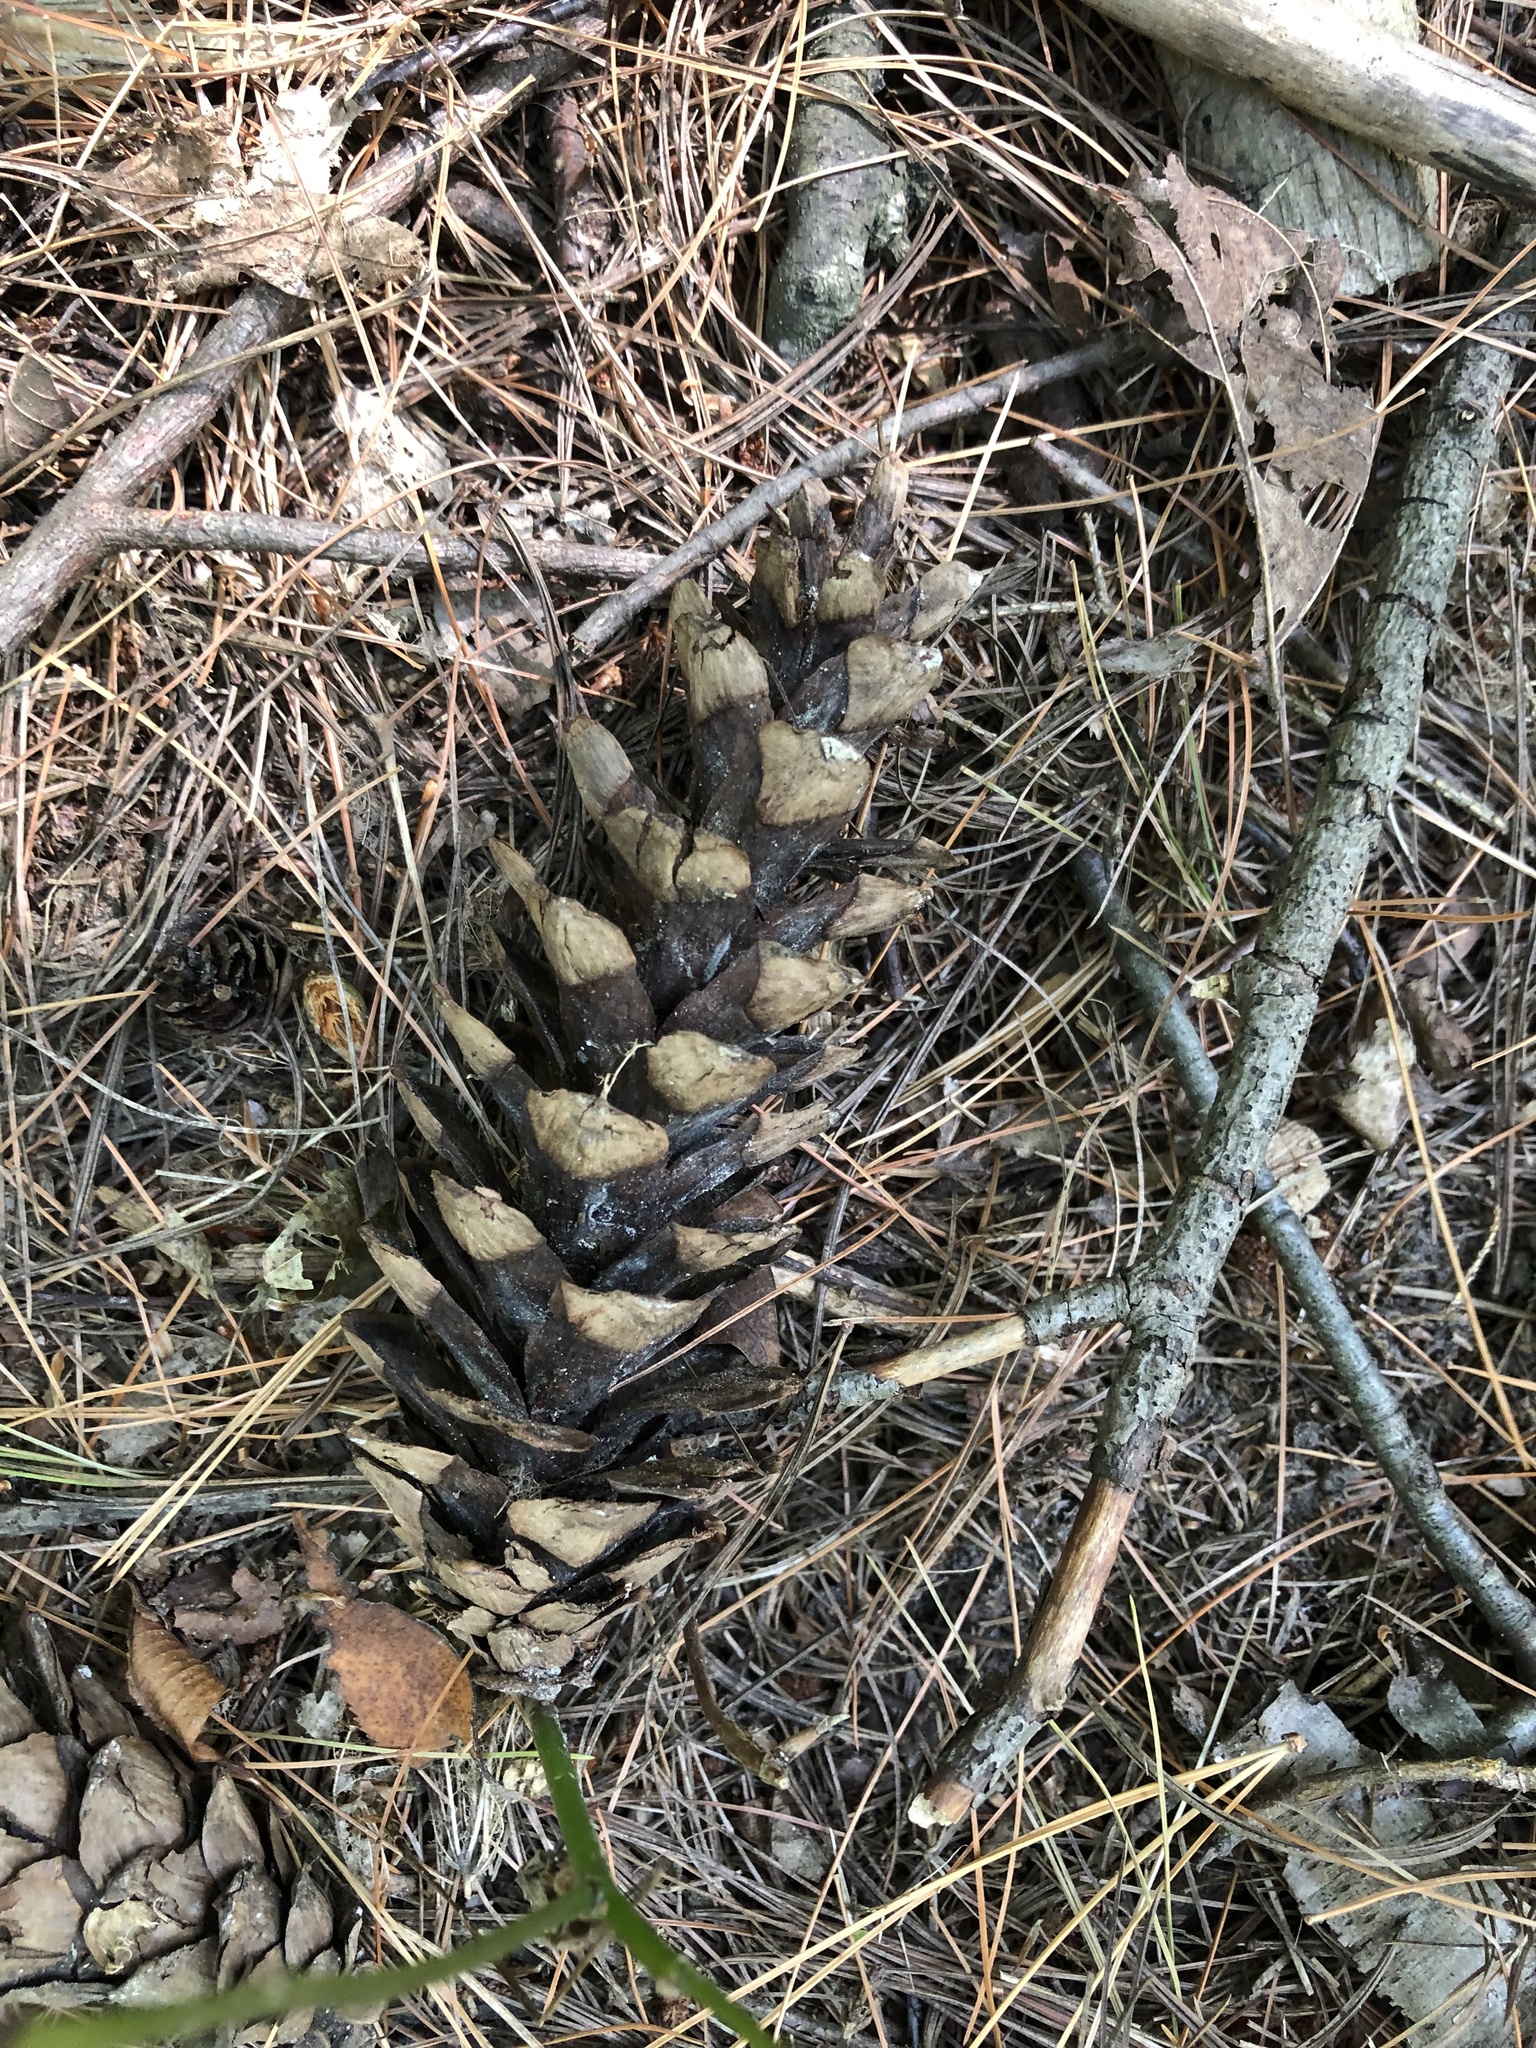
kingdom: Plantae
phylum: Tracheophyta
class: Pinopsida
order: Pinales
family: Pinaceae
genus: Pinus
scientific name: Pinus strobus
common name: Weymouth pine
